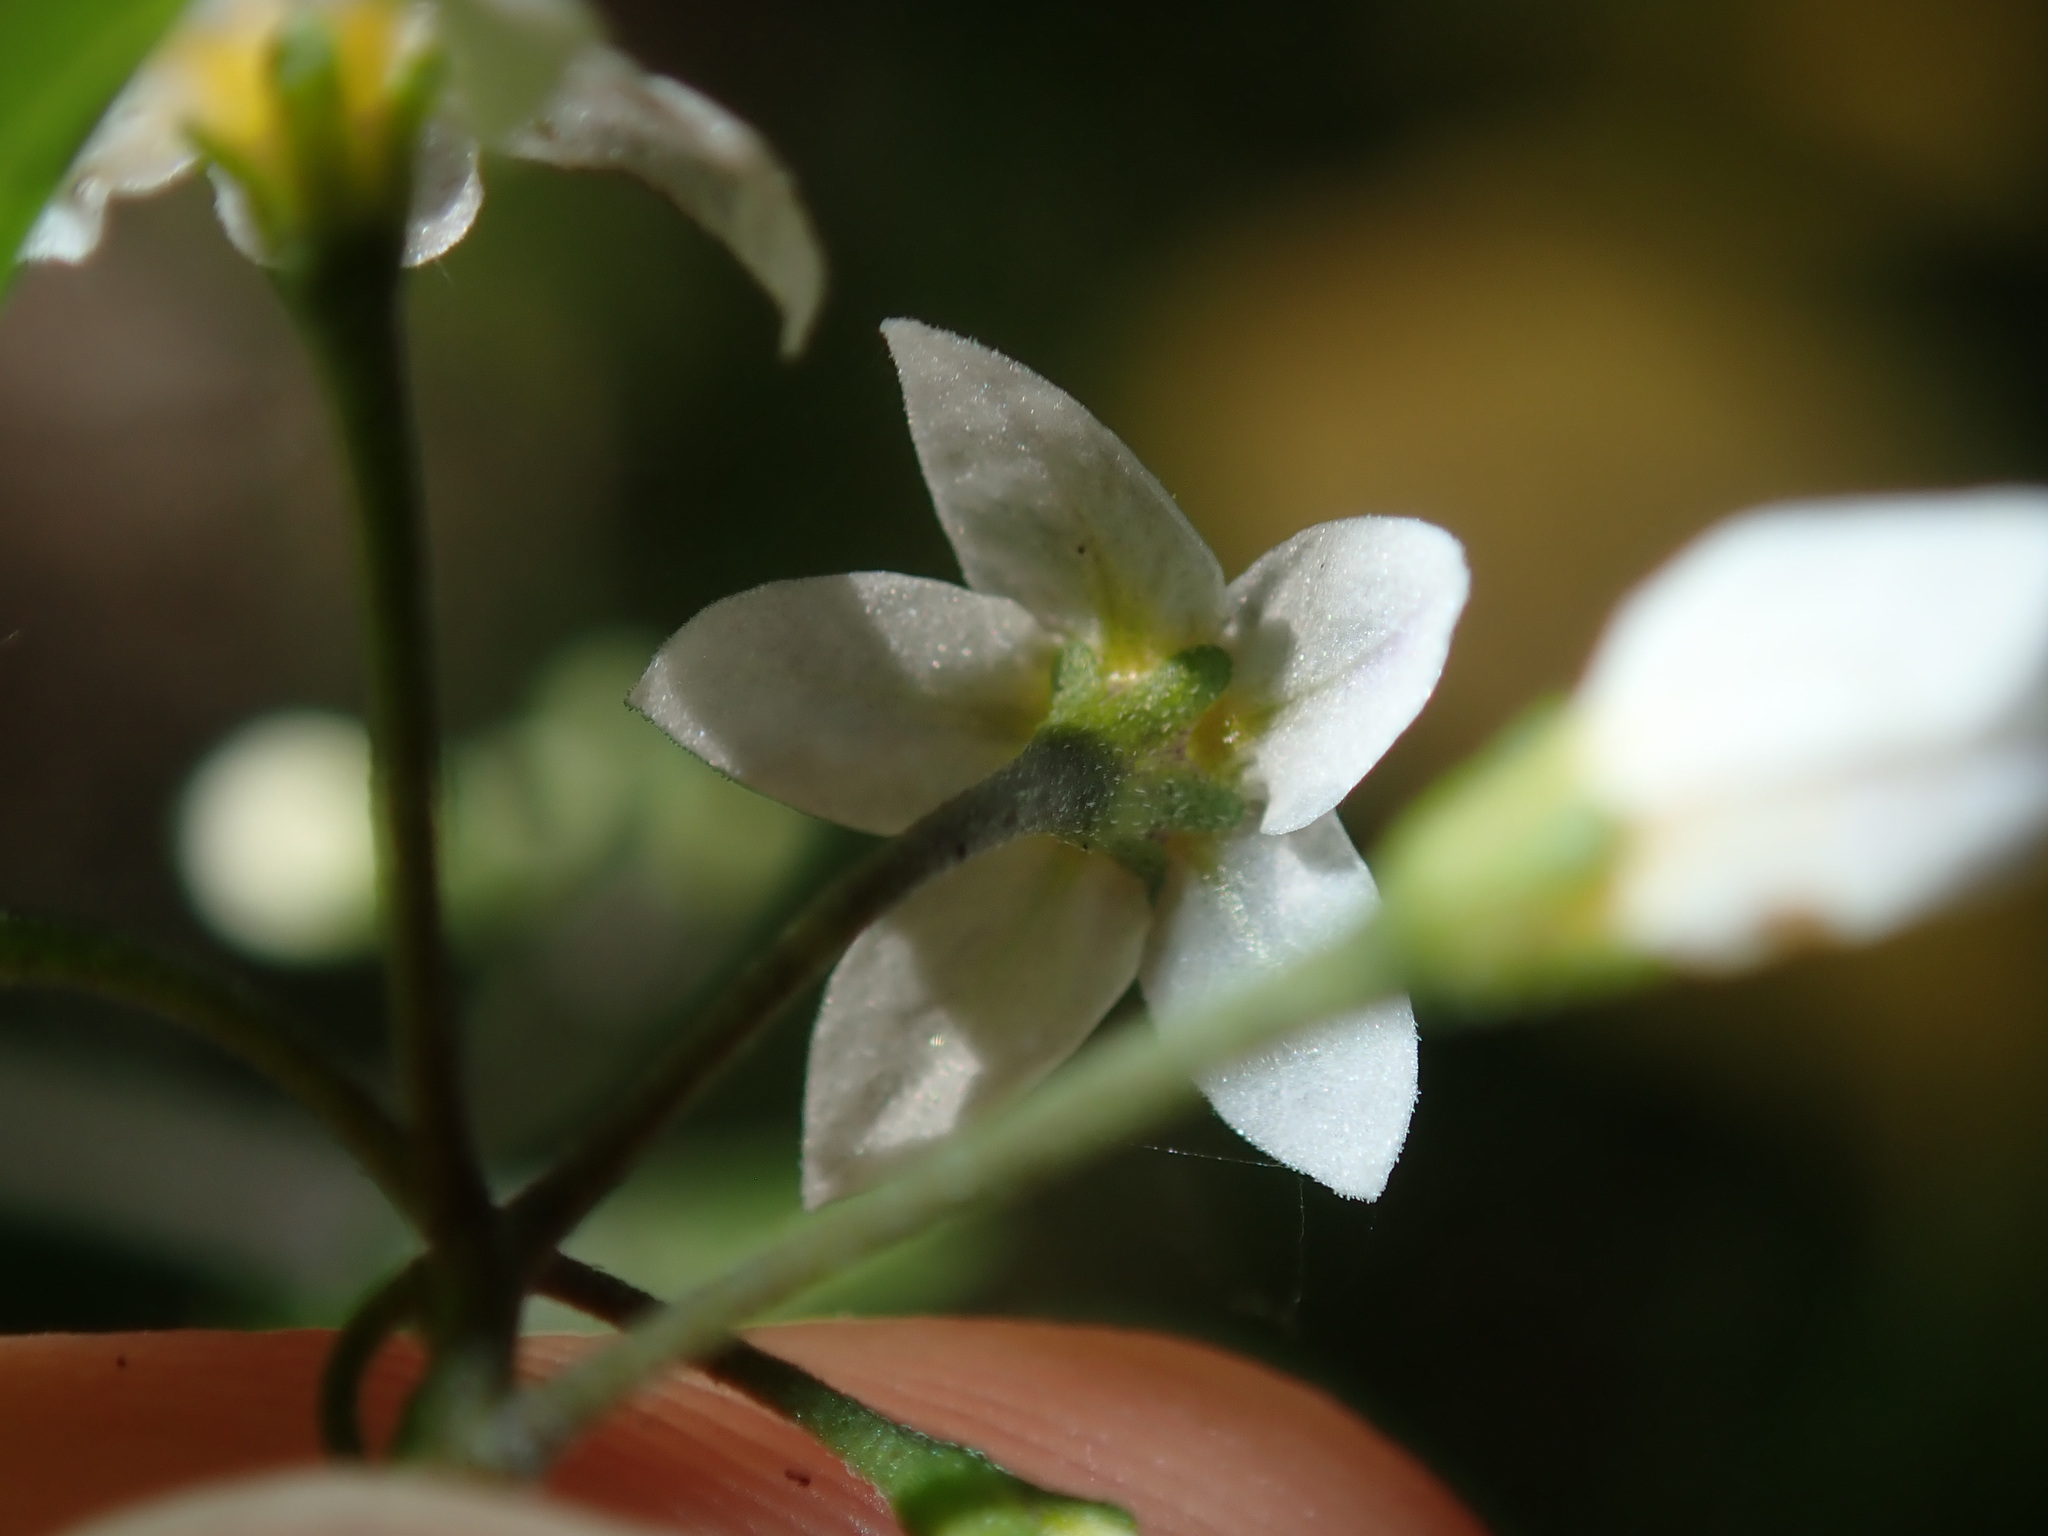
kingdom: Plantae
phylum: Tracheophyta
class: Magnoliopsida
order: Solanales
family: Solanaceae
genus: Solanum
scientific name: Solanum americanum
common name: American black nightshade
